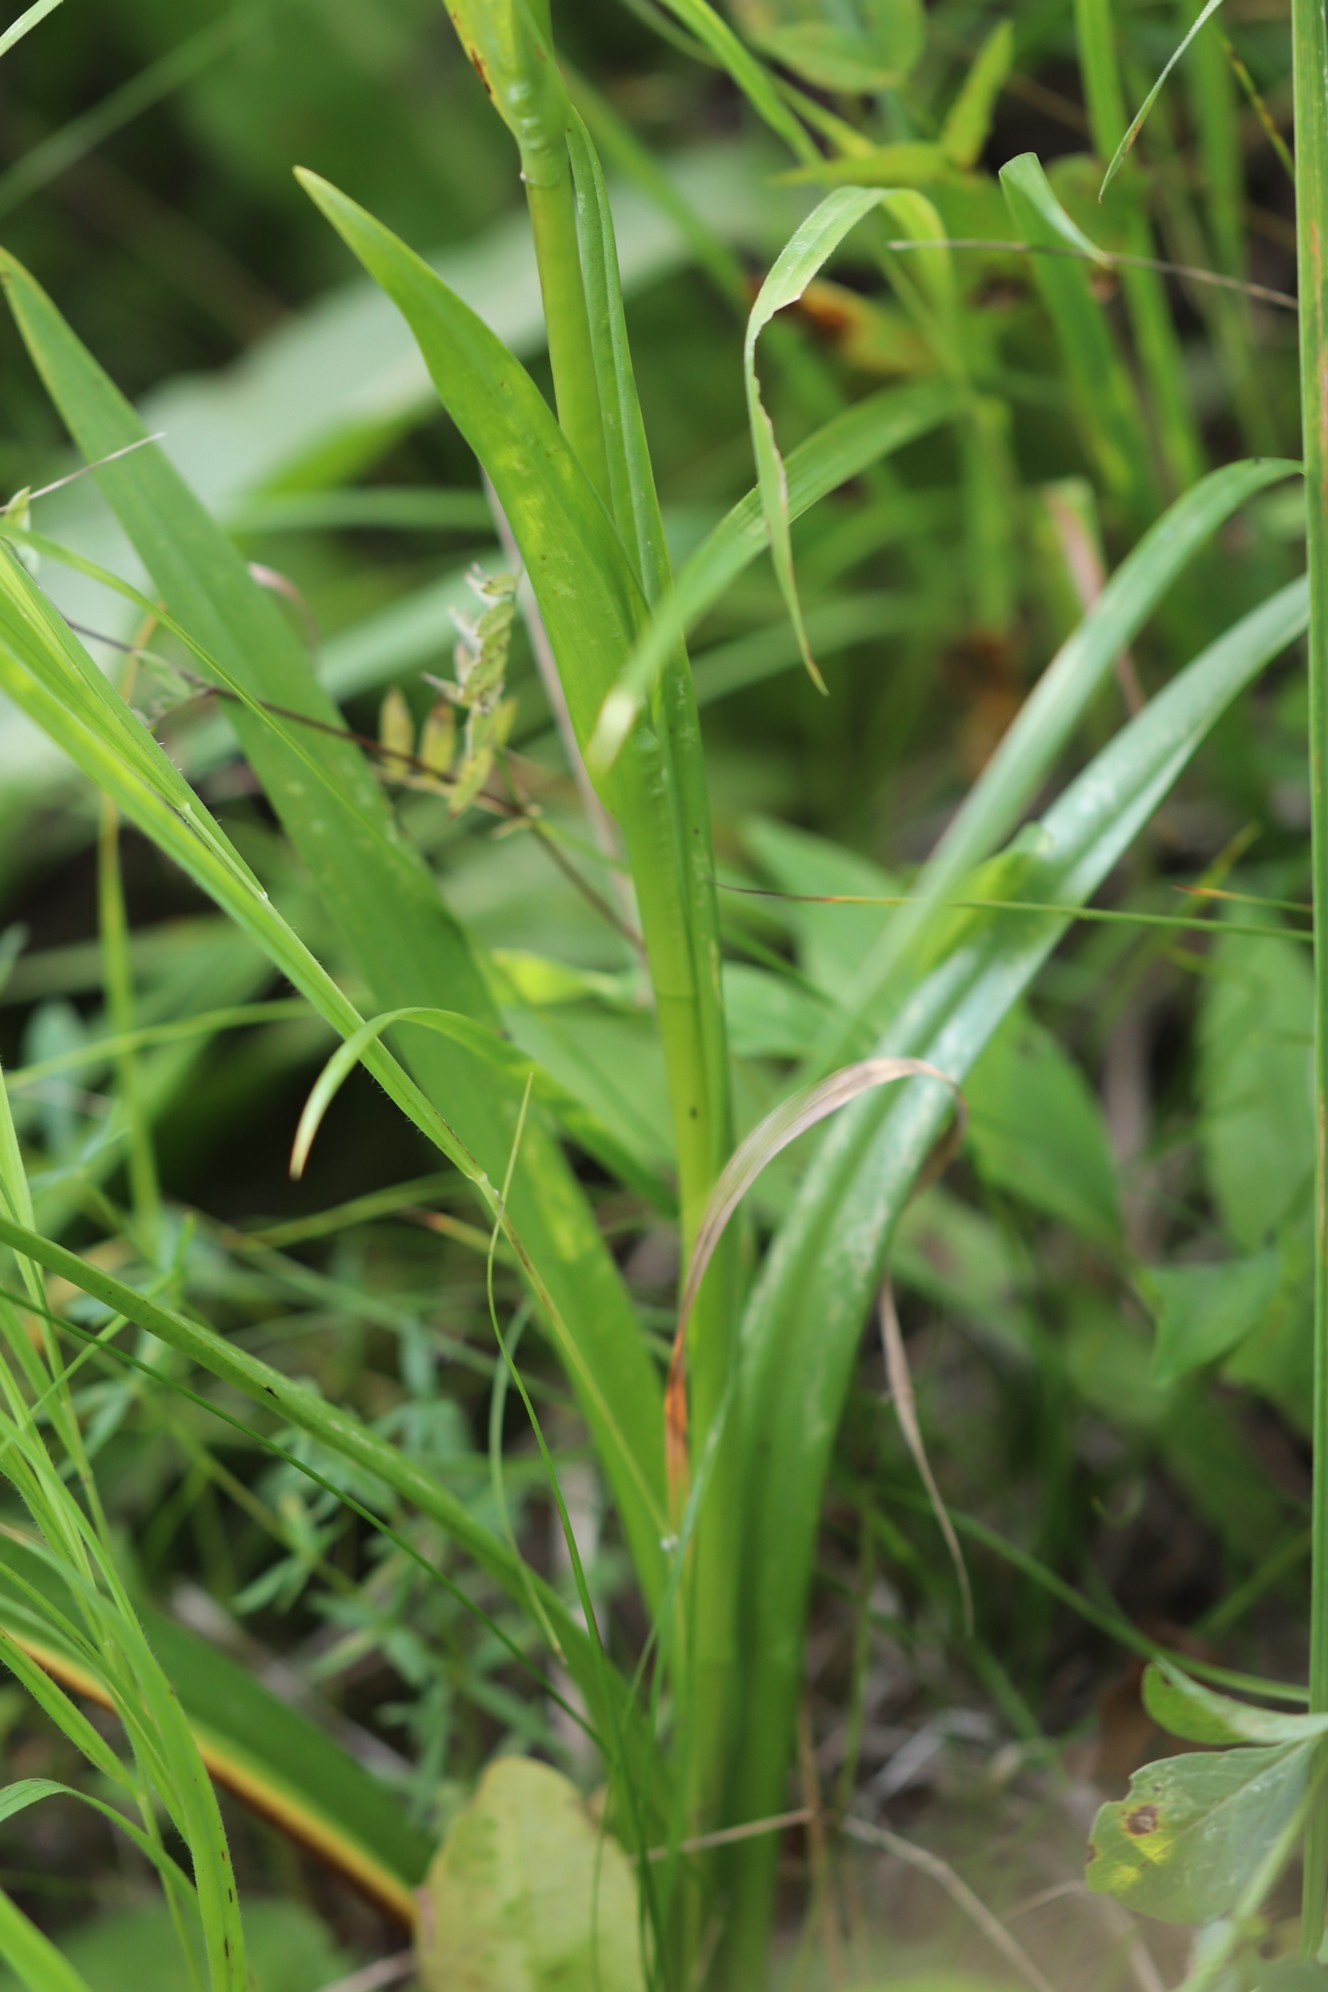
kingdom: Plantae
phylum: Tracheophyta
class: Liliopsida
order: Asparagales
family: Orchidaceae
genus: Gymnadenia
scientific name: Gymnadenia conopsea
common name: Fragrant orchid
